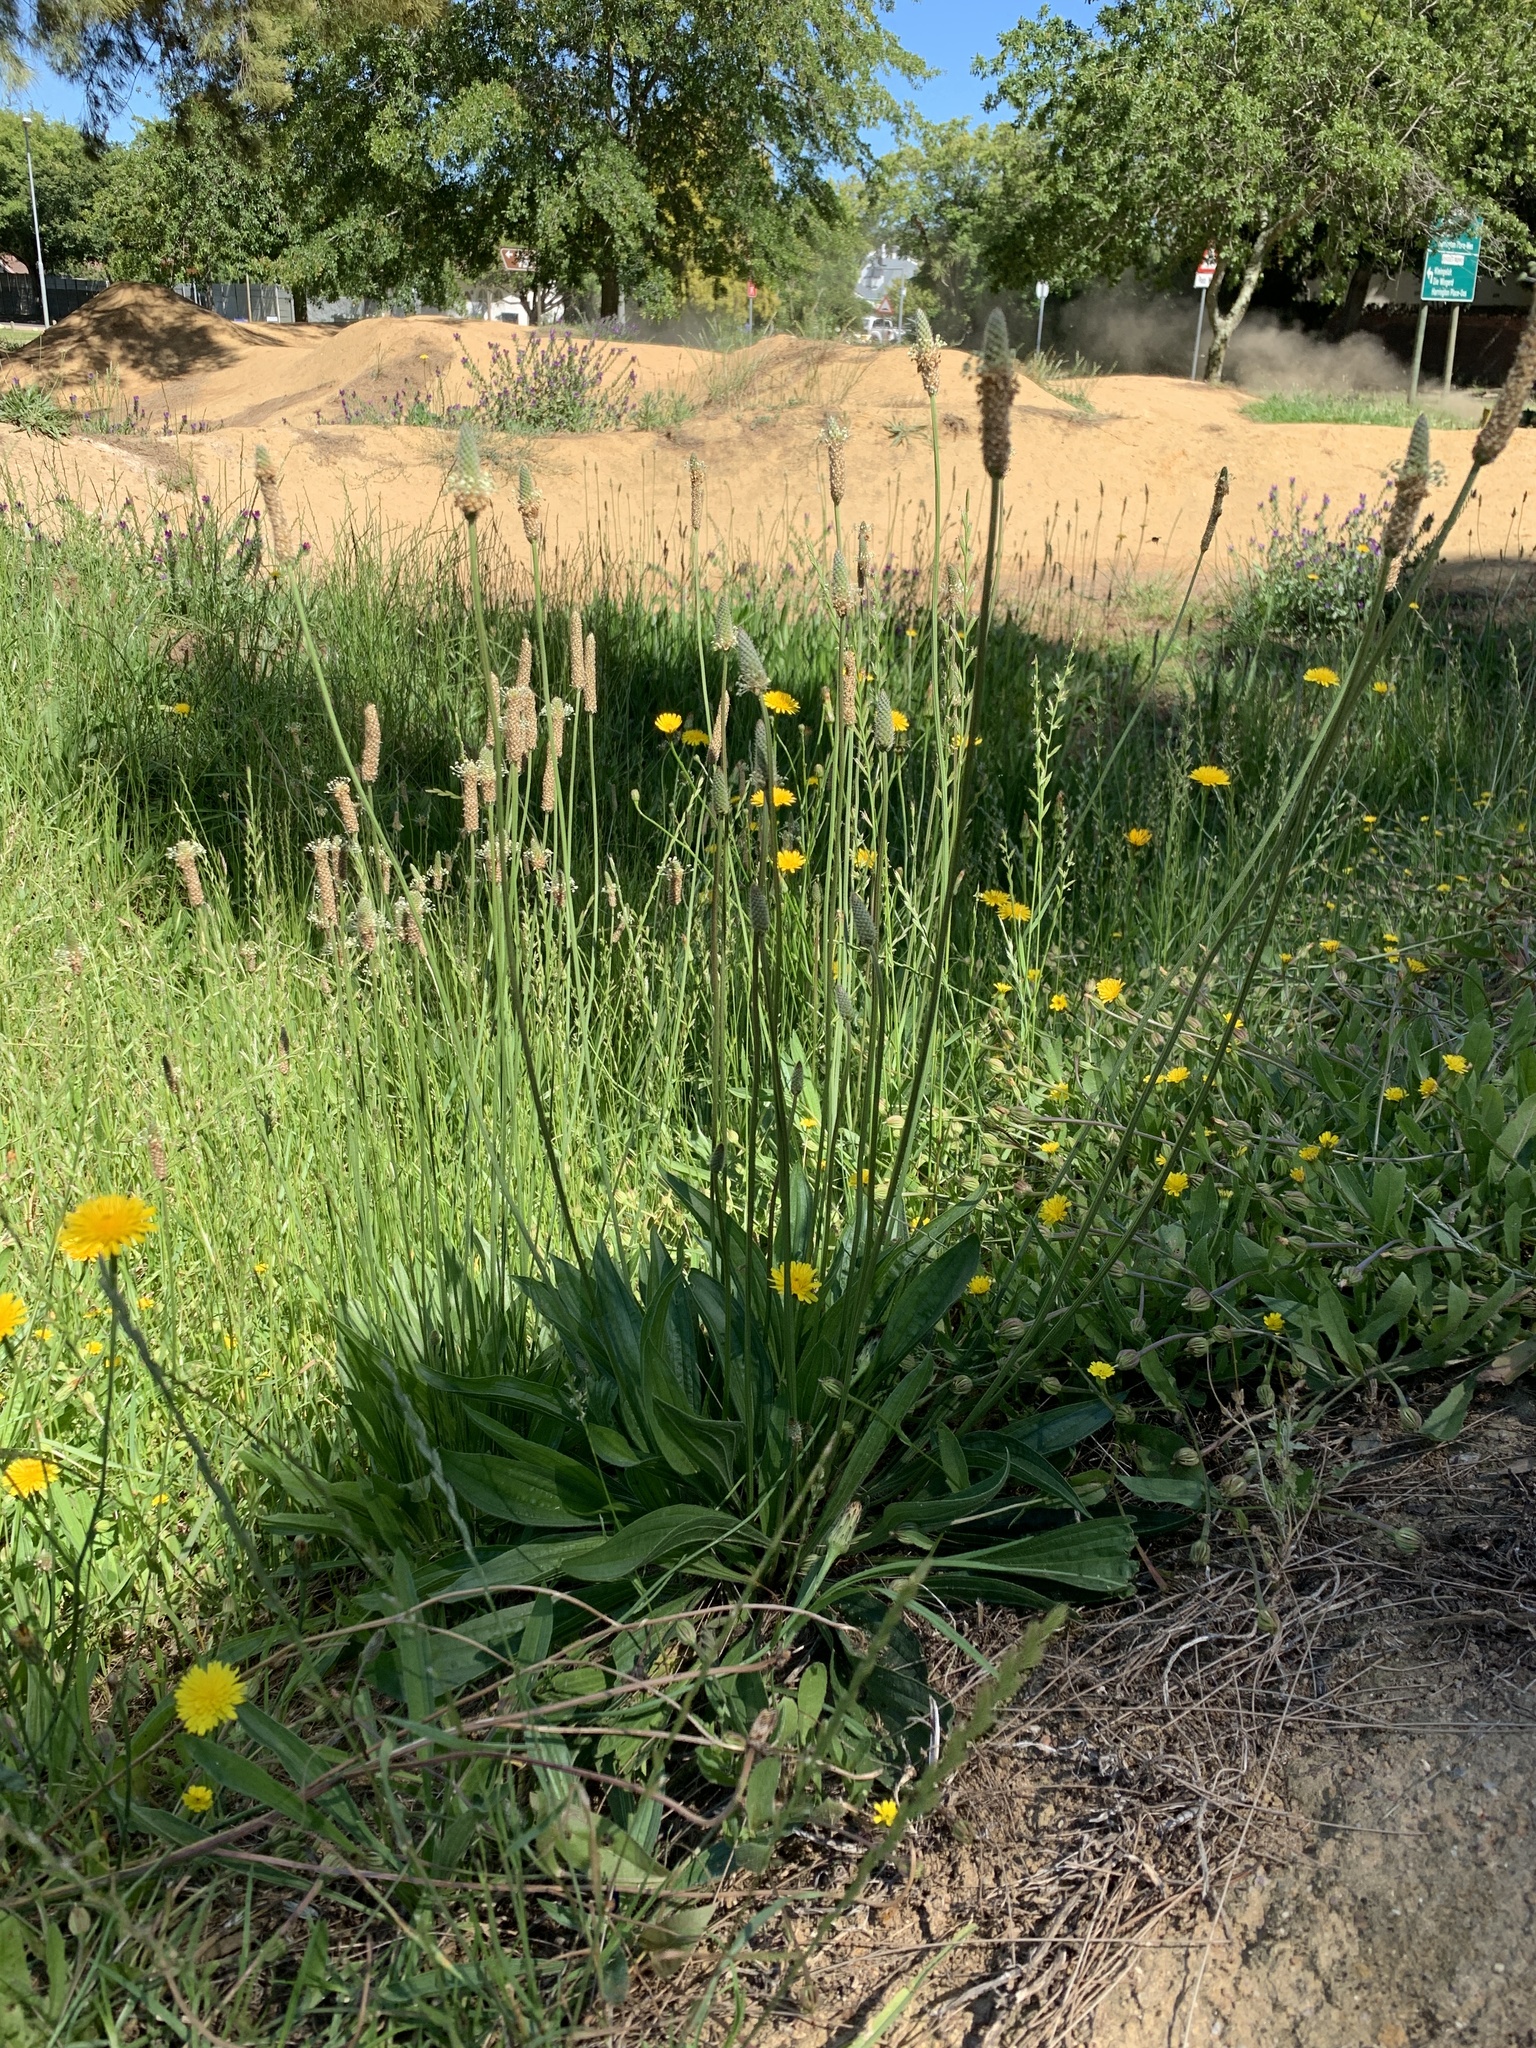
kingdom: Plantae
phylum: Tracheophyta
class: Magnoliopsida
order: Lamiales
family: Plantaginaceae
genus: Plantago
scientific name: Plantago lanceolata
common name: Ribwort plantain
